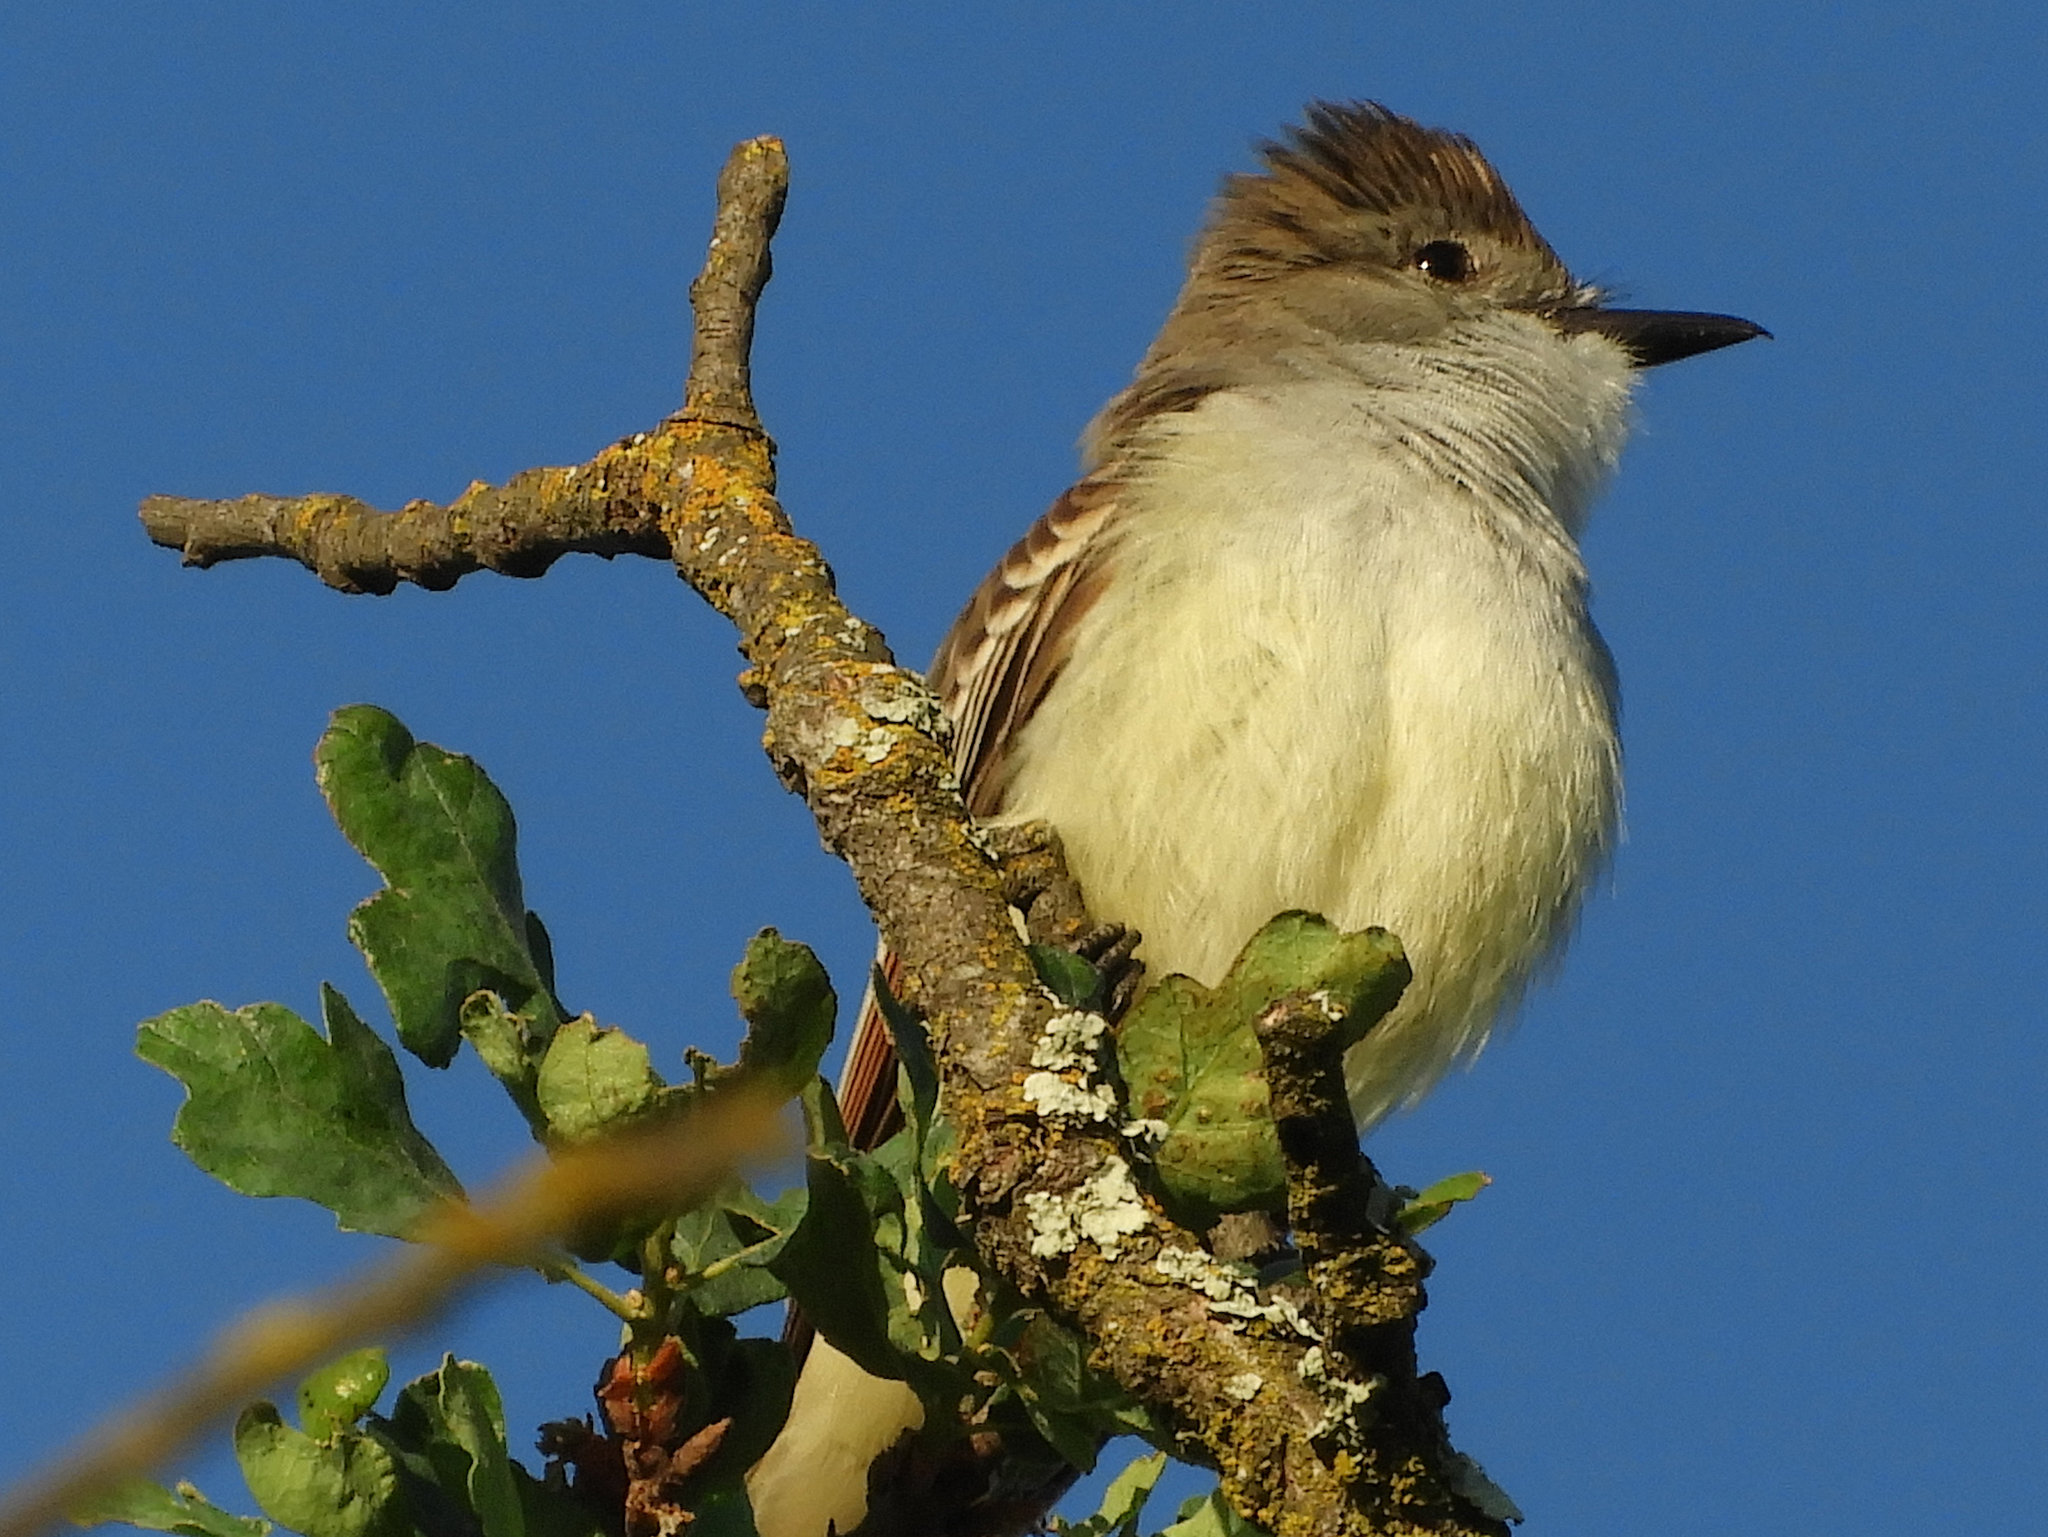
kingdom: Animalia
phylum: Chordata
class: Aves
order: Passeriformes
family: Tyrannidae
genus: Myiarchus
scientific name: Myiarchus cinerascens
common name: Ash-throated flycatcher
